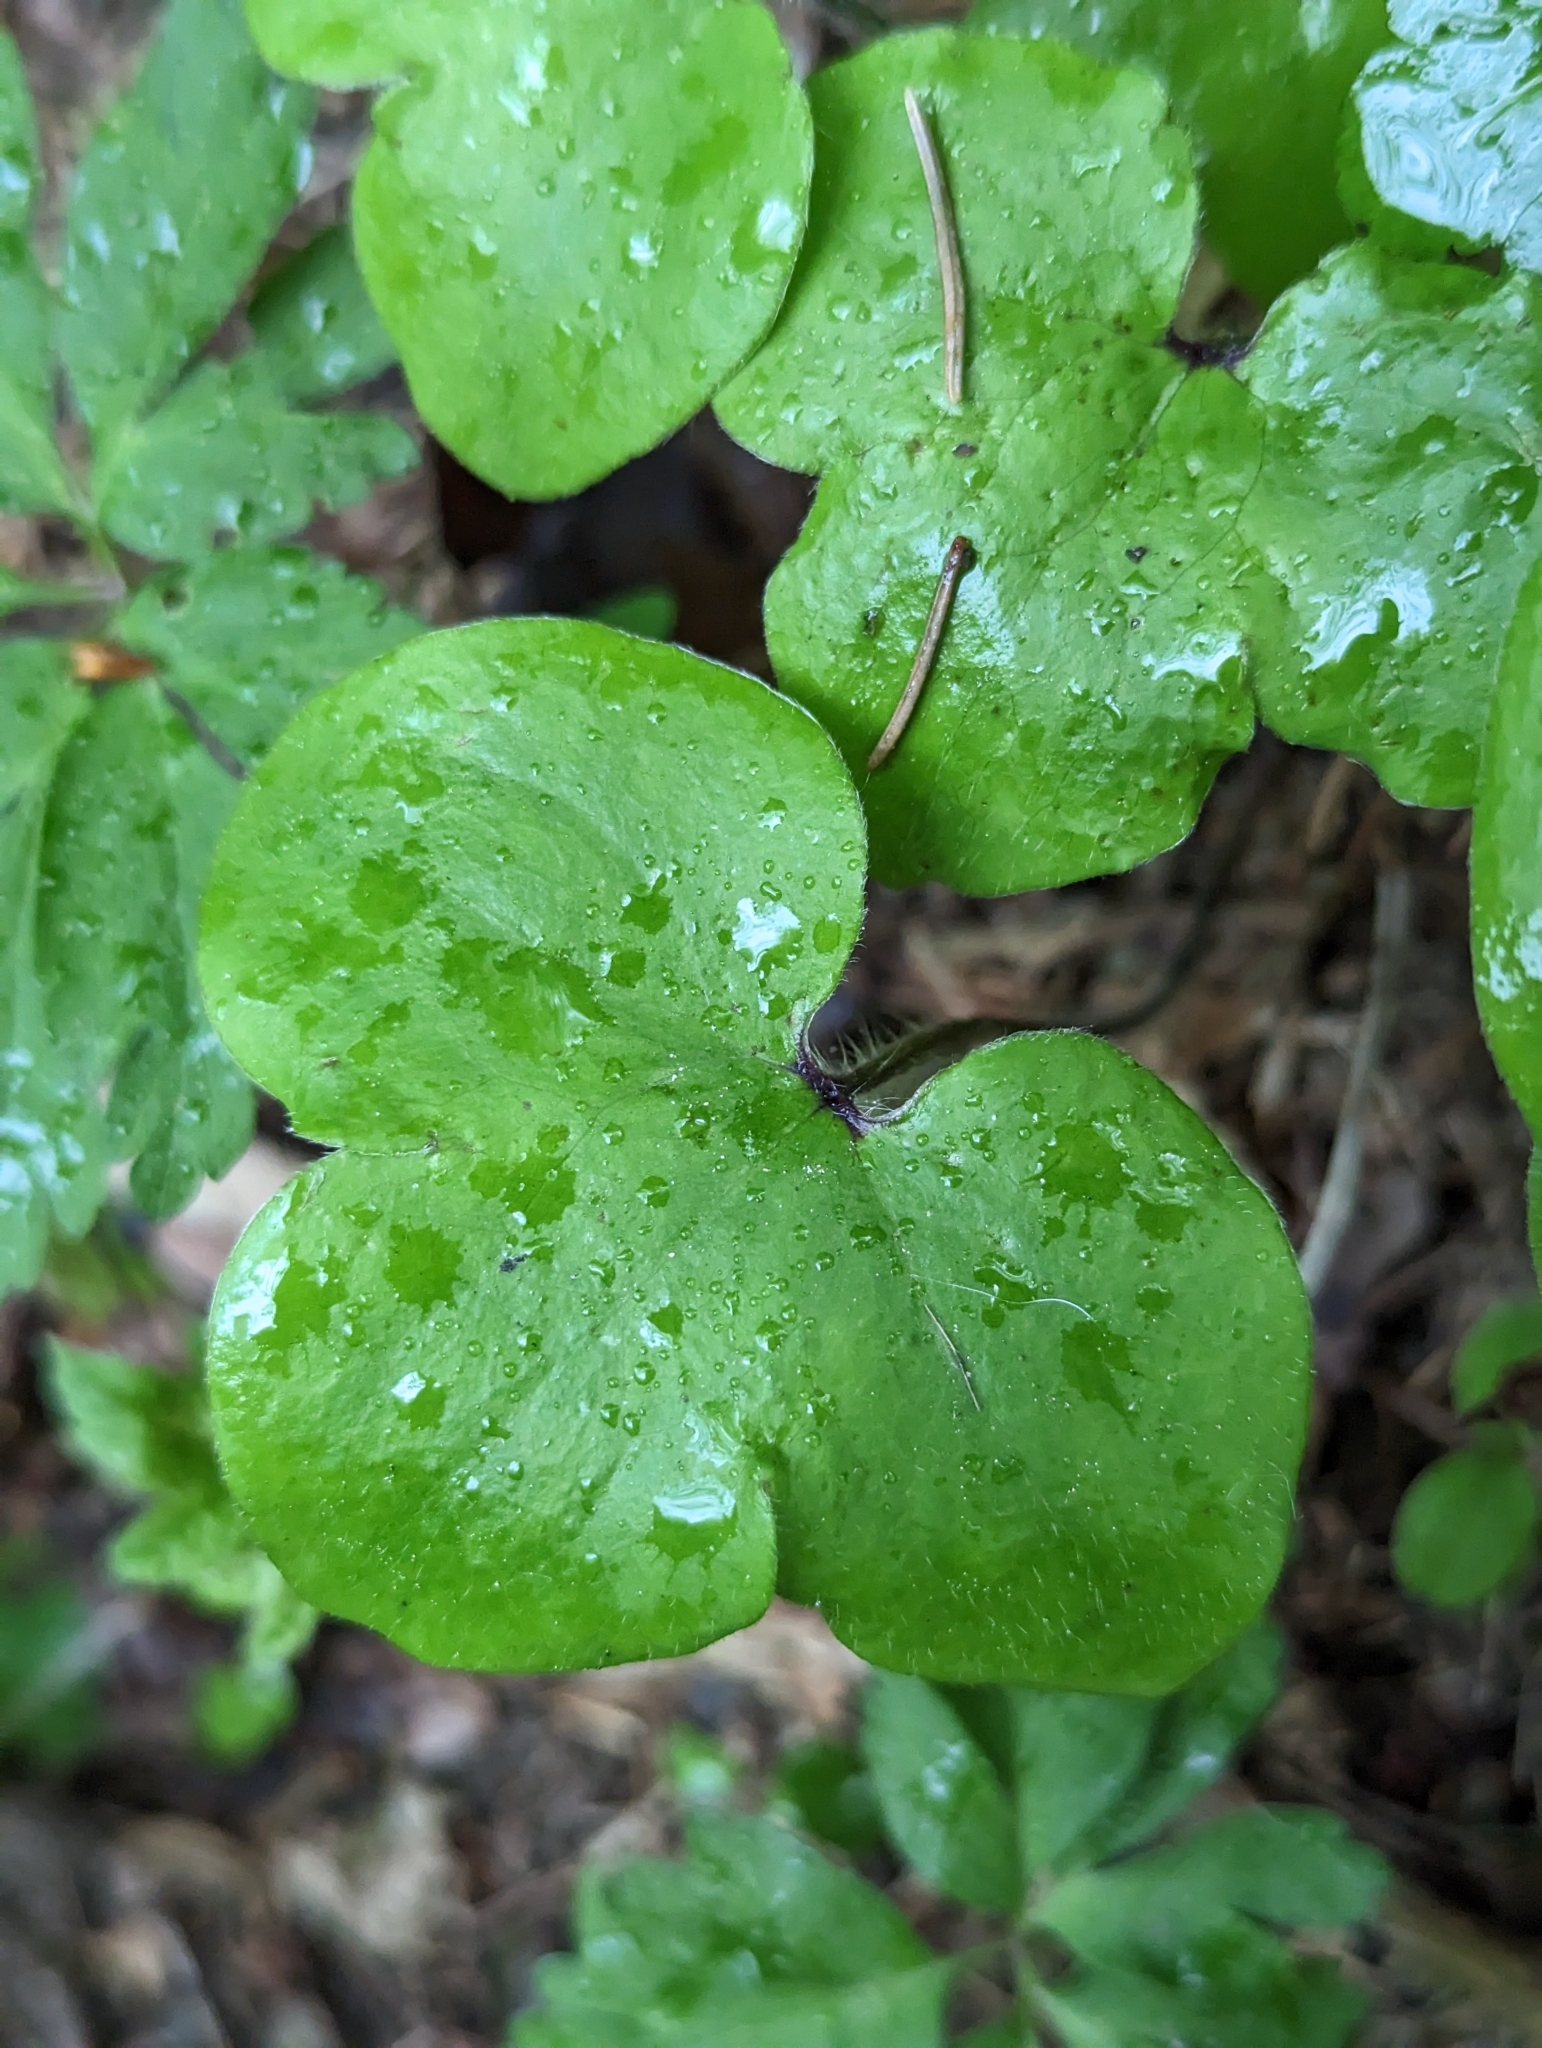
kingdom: Plantae
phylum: Tracheophyta
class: Magnoliopsida
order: Ranunculales
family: Ranunculaceae
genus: Hepatica
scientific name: Hepatica nobilis
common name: Liverleaf
